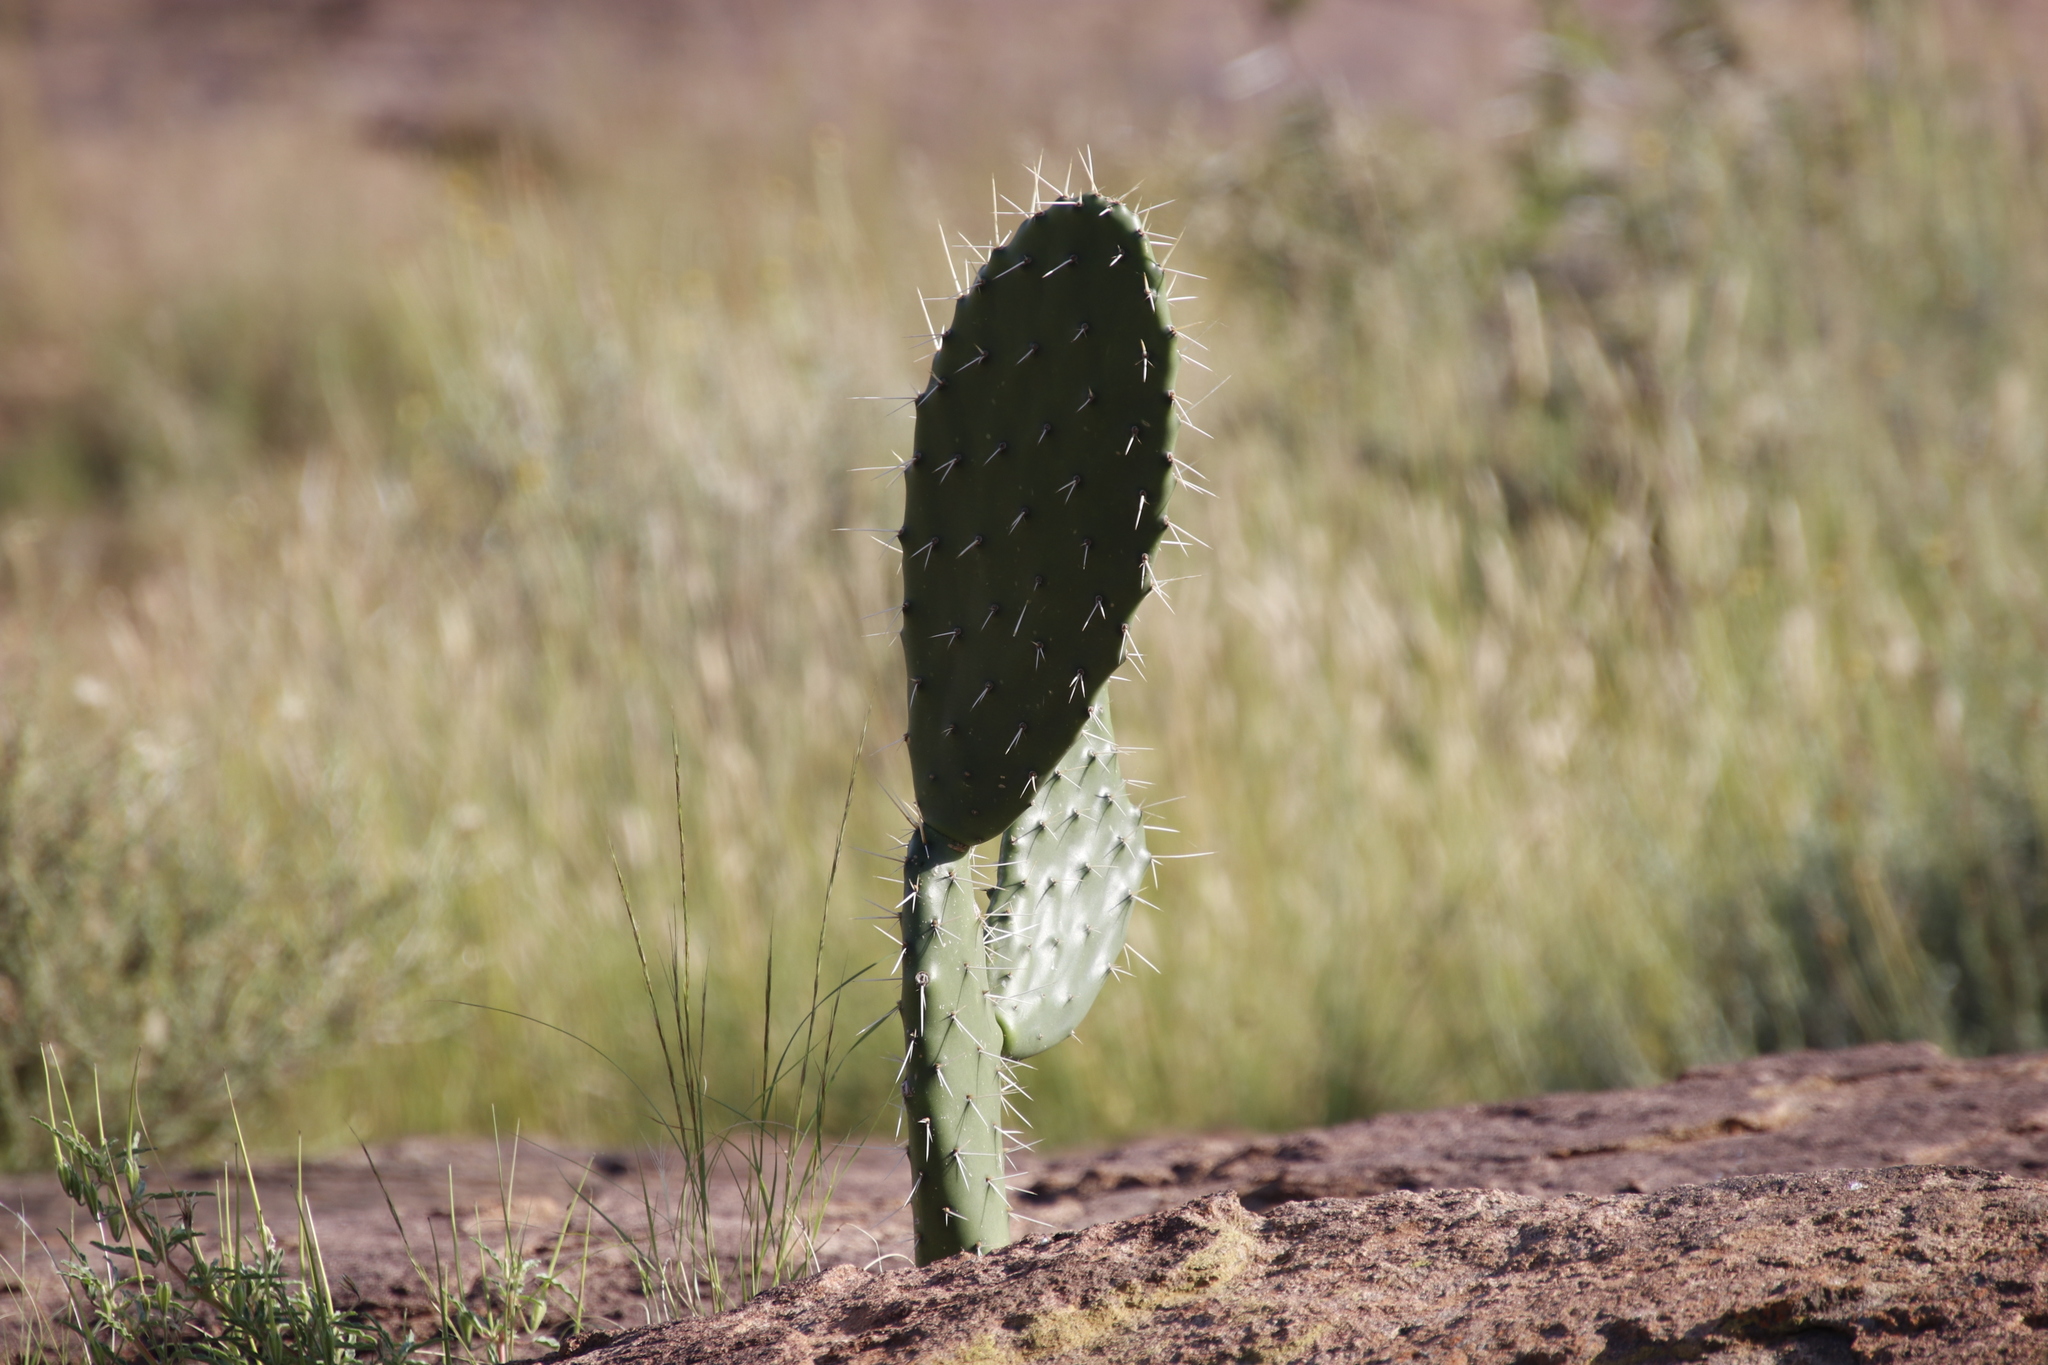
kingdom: Plantae
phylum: Tracheophyta
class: Magnoliopsida
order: Caryophyllales
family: Cactaceae
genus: Opuntia
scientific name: Opuntia ficus-indica
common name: Barbary fig
